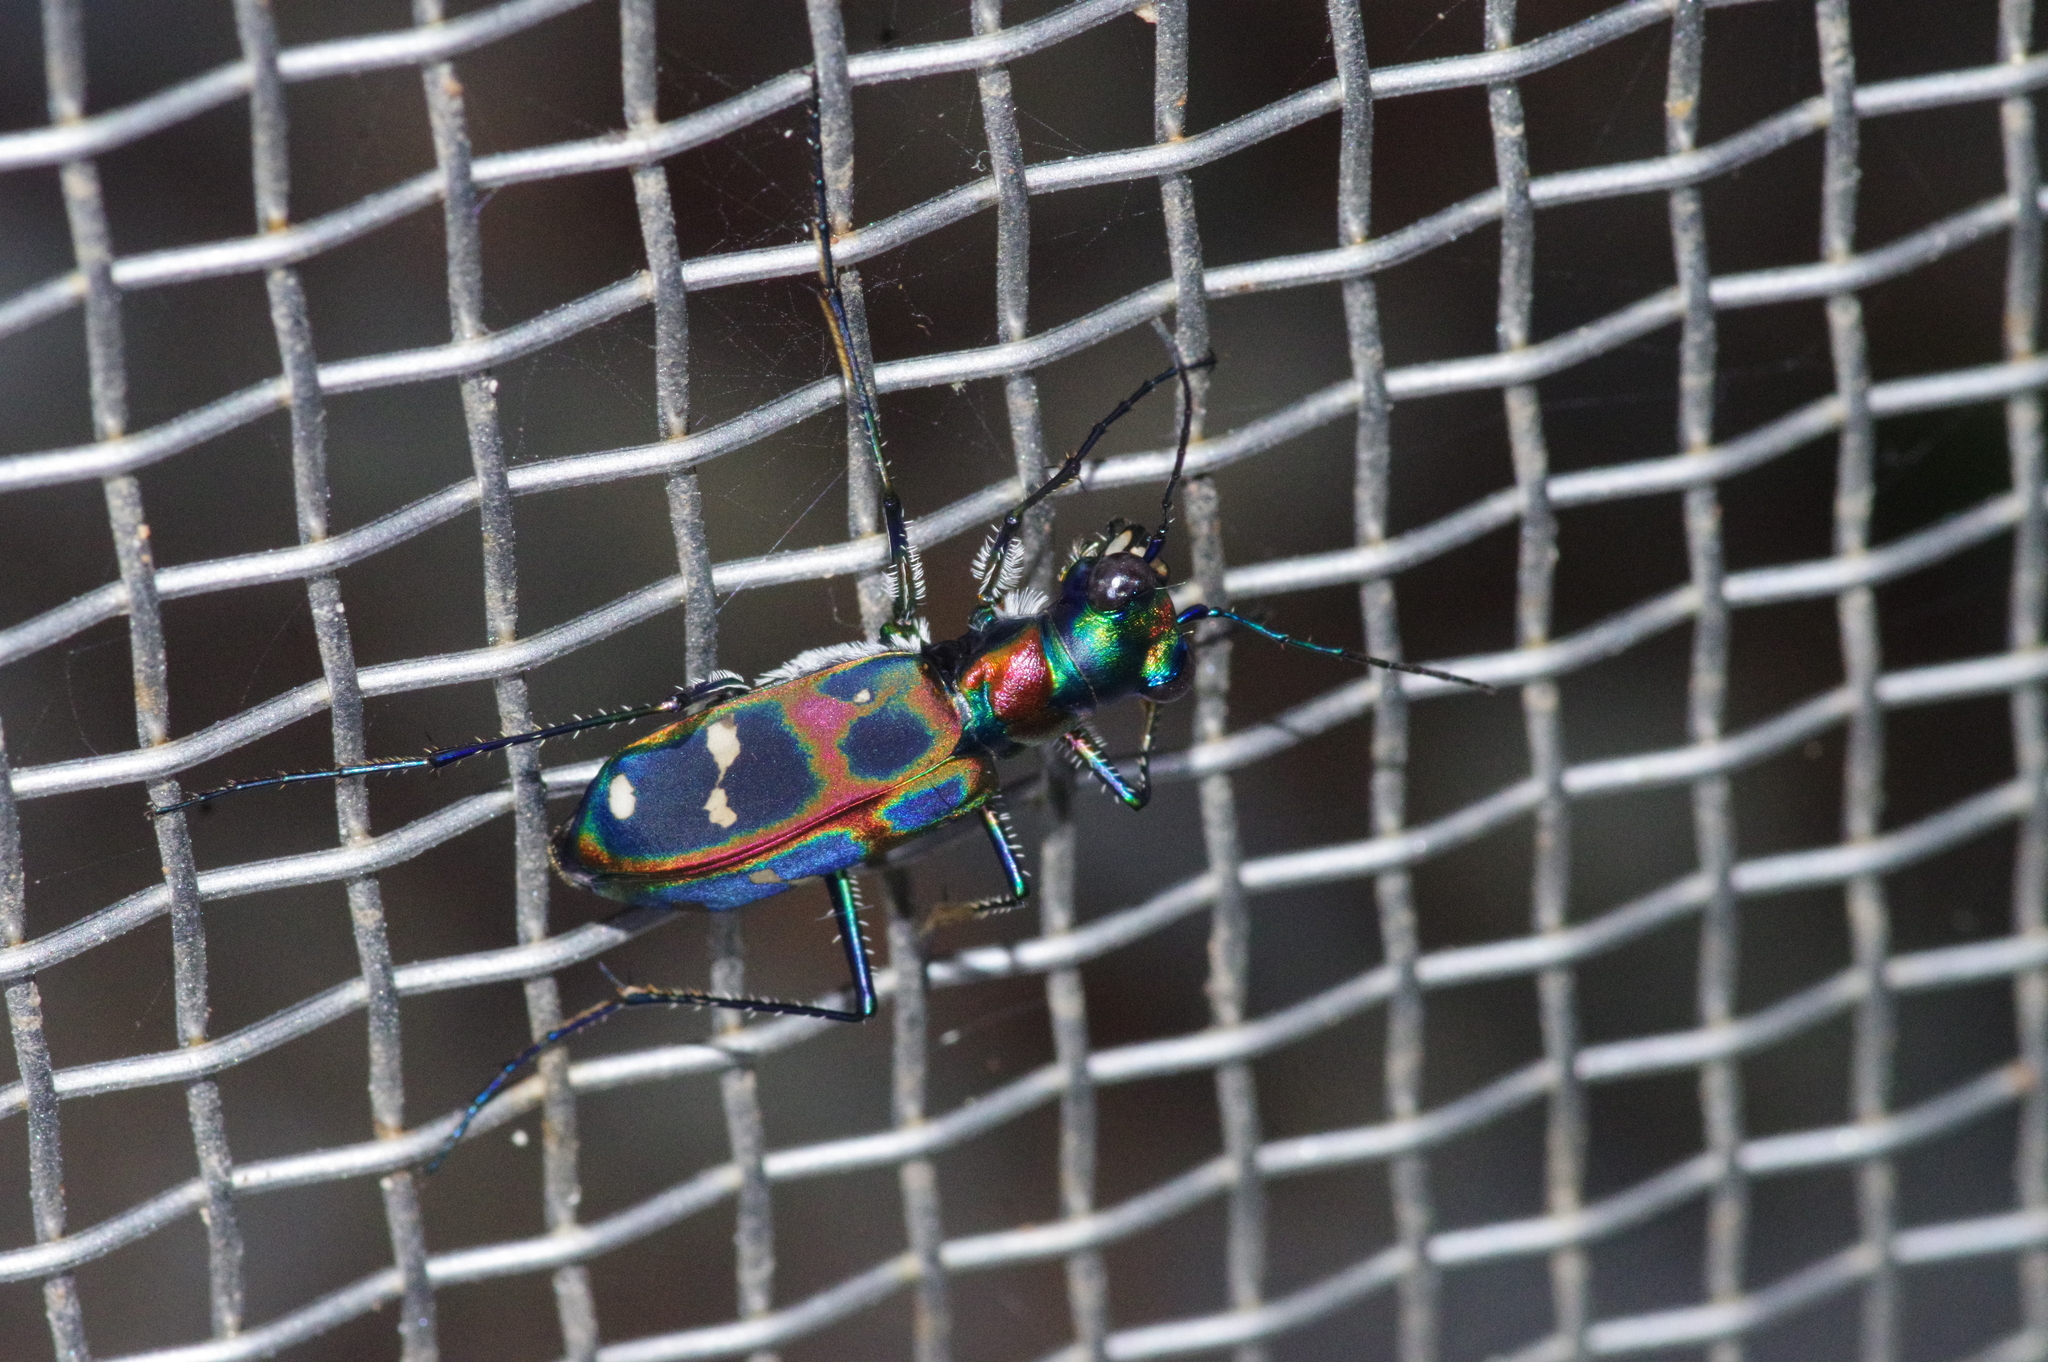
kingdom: Animalia
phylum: Arthropoda
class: Insecta
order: Coleoptera
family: Carabidae
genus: Cicindela
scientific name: Cicindela chinensis
